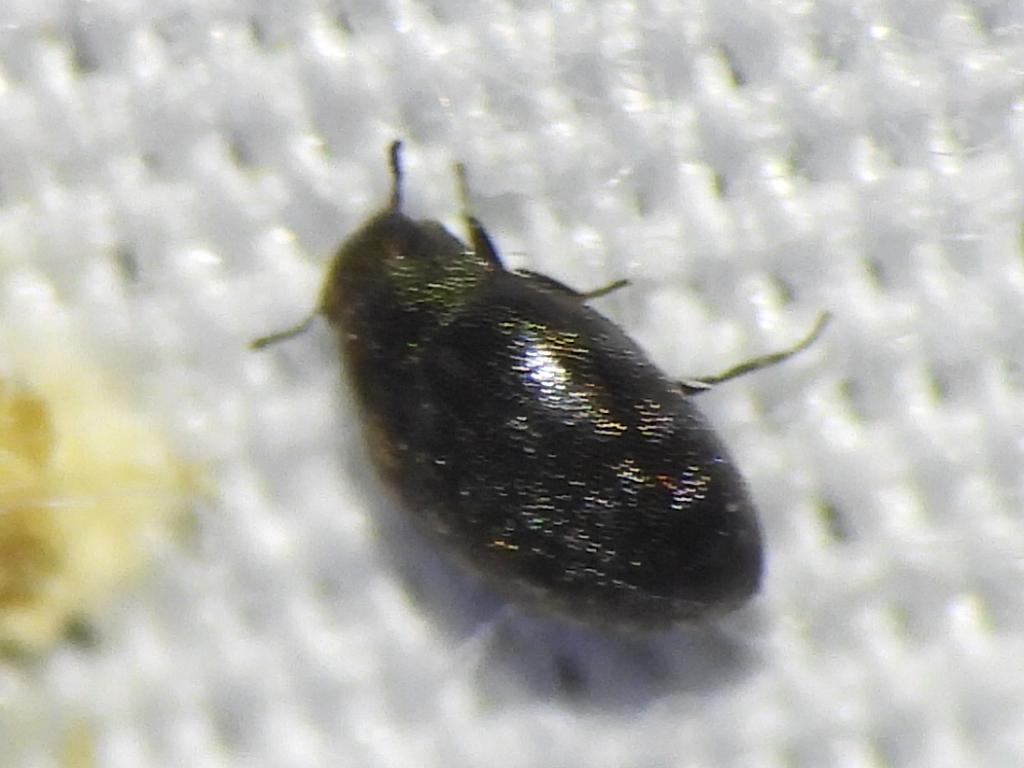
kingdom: Animalia
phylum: Arthropoda
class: Insecta
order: Coleoptera
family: Limnichidae
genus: Eulimnichus
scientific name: Eulimnichus ater
